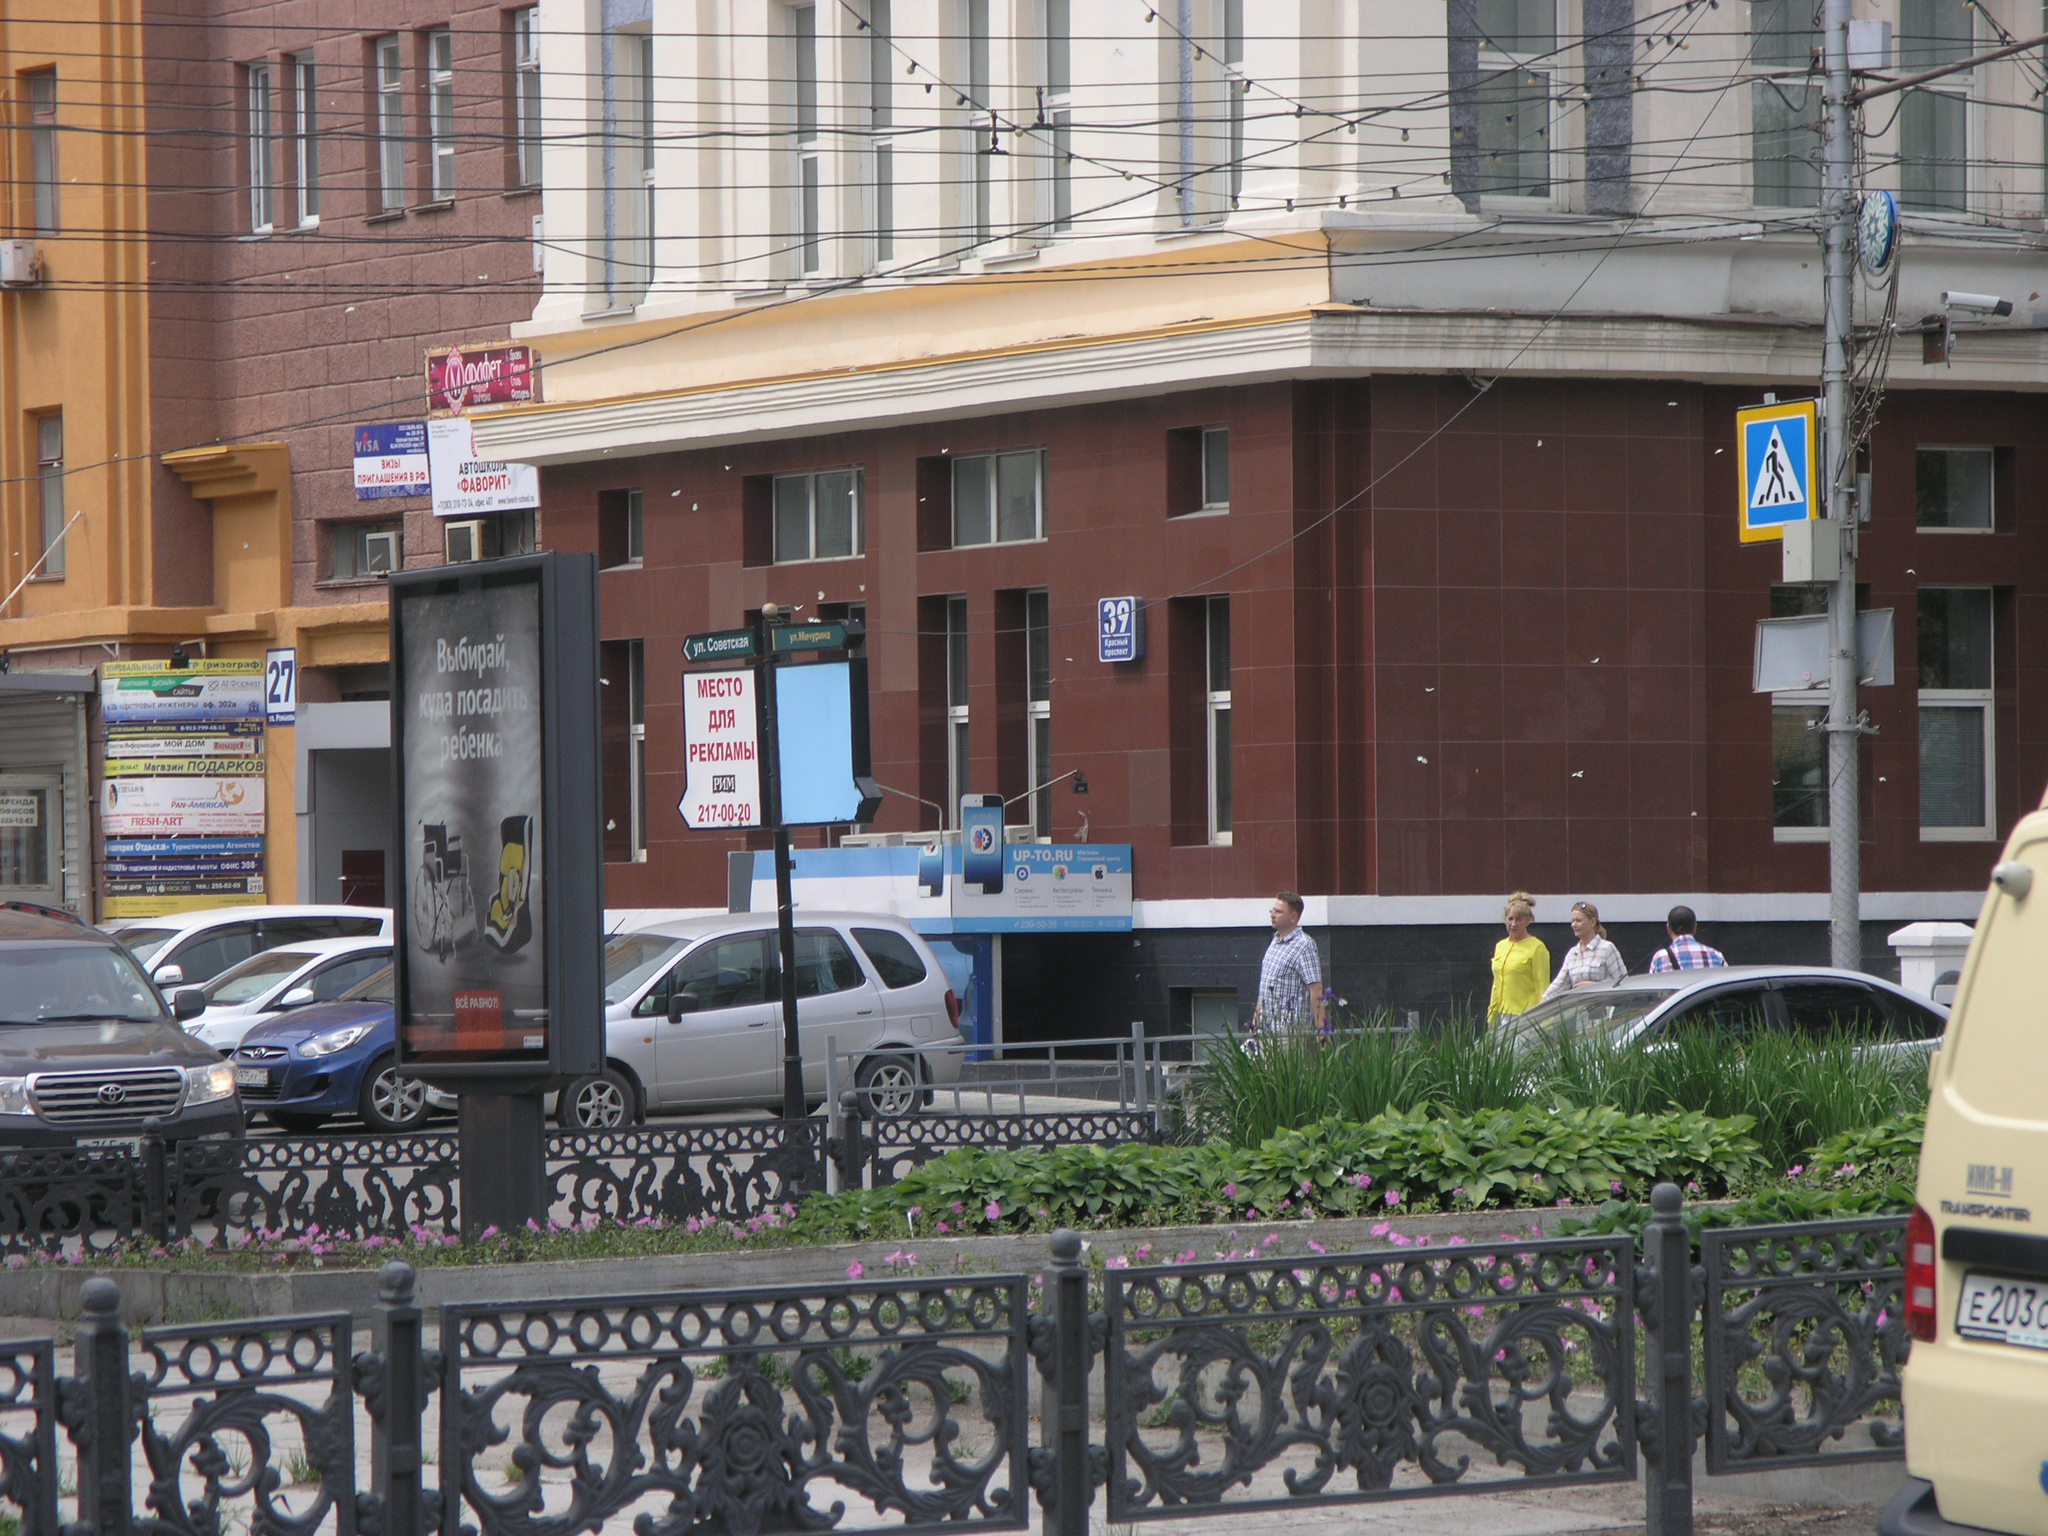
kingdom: Animalia
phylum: Arthropoda
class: Insecta
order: Lepidoptera
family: Pieridae
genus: Aporia
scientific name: Aporia crataegi
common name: Black-veined white
